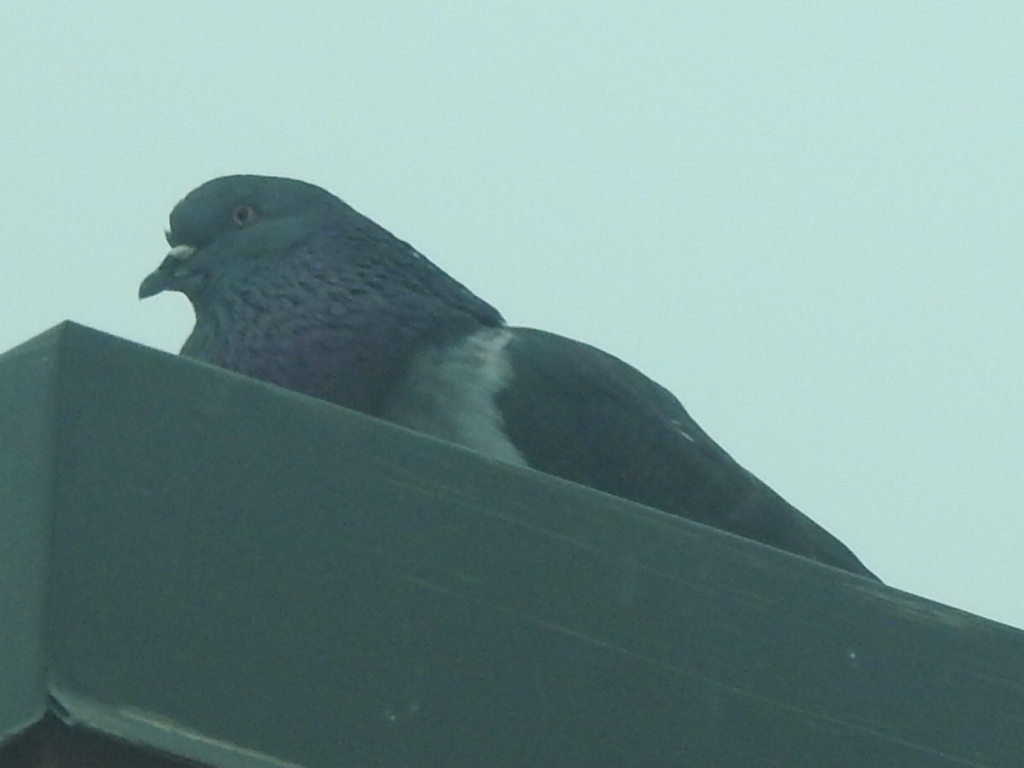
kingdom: Animalia
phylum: Chordata
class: Aves
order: Columbiformes
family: Columbidae
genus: Columba
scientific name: Columba livia
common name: Rock pigeon
